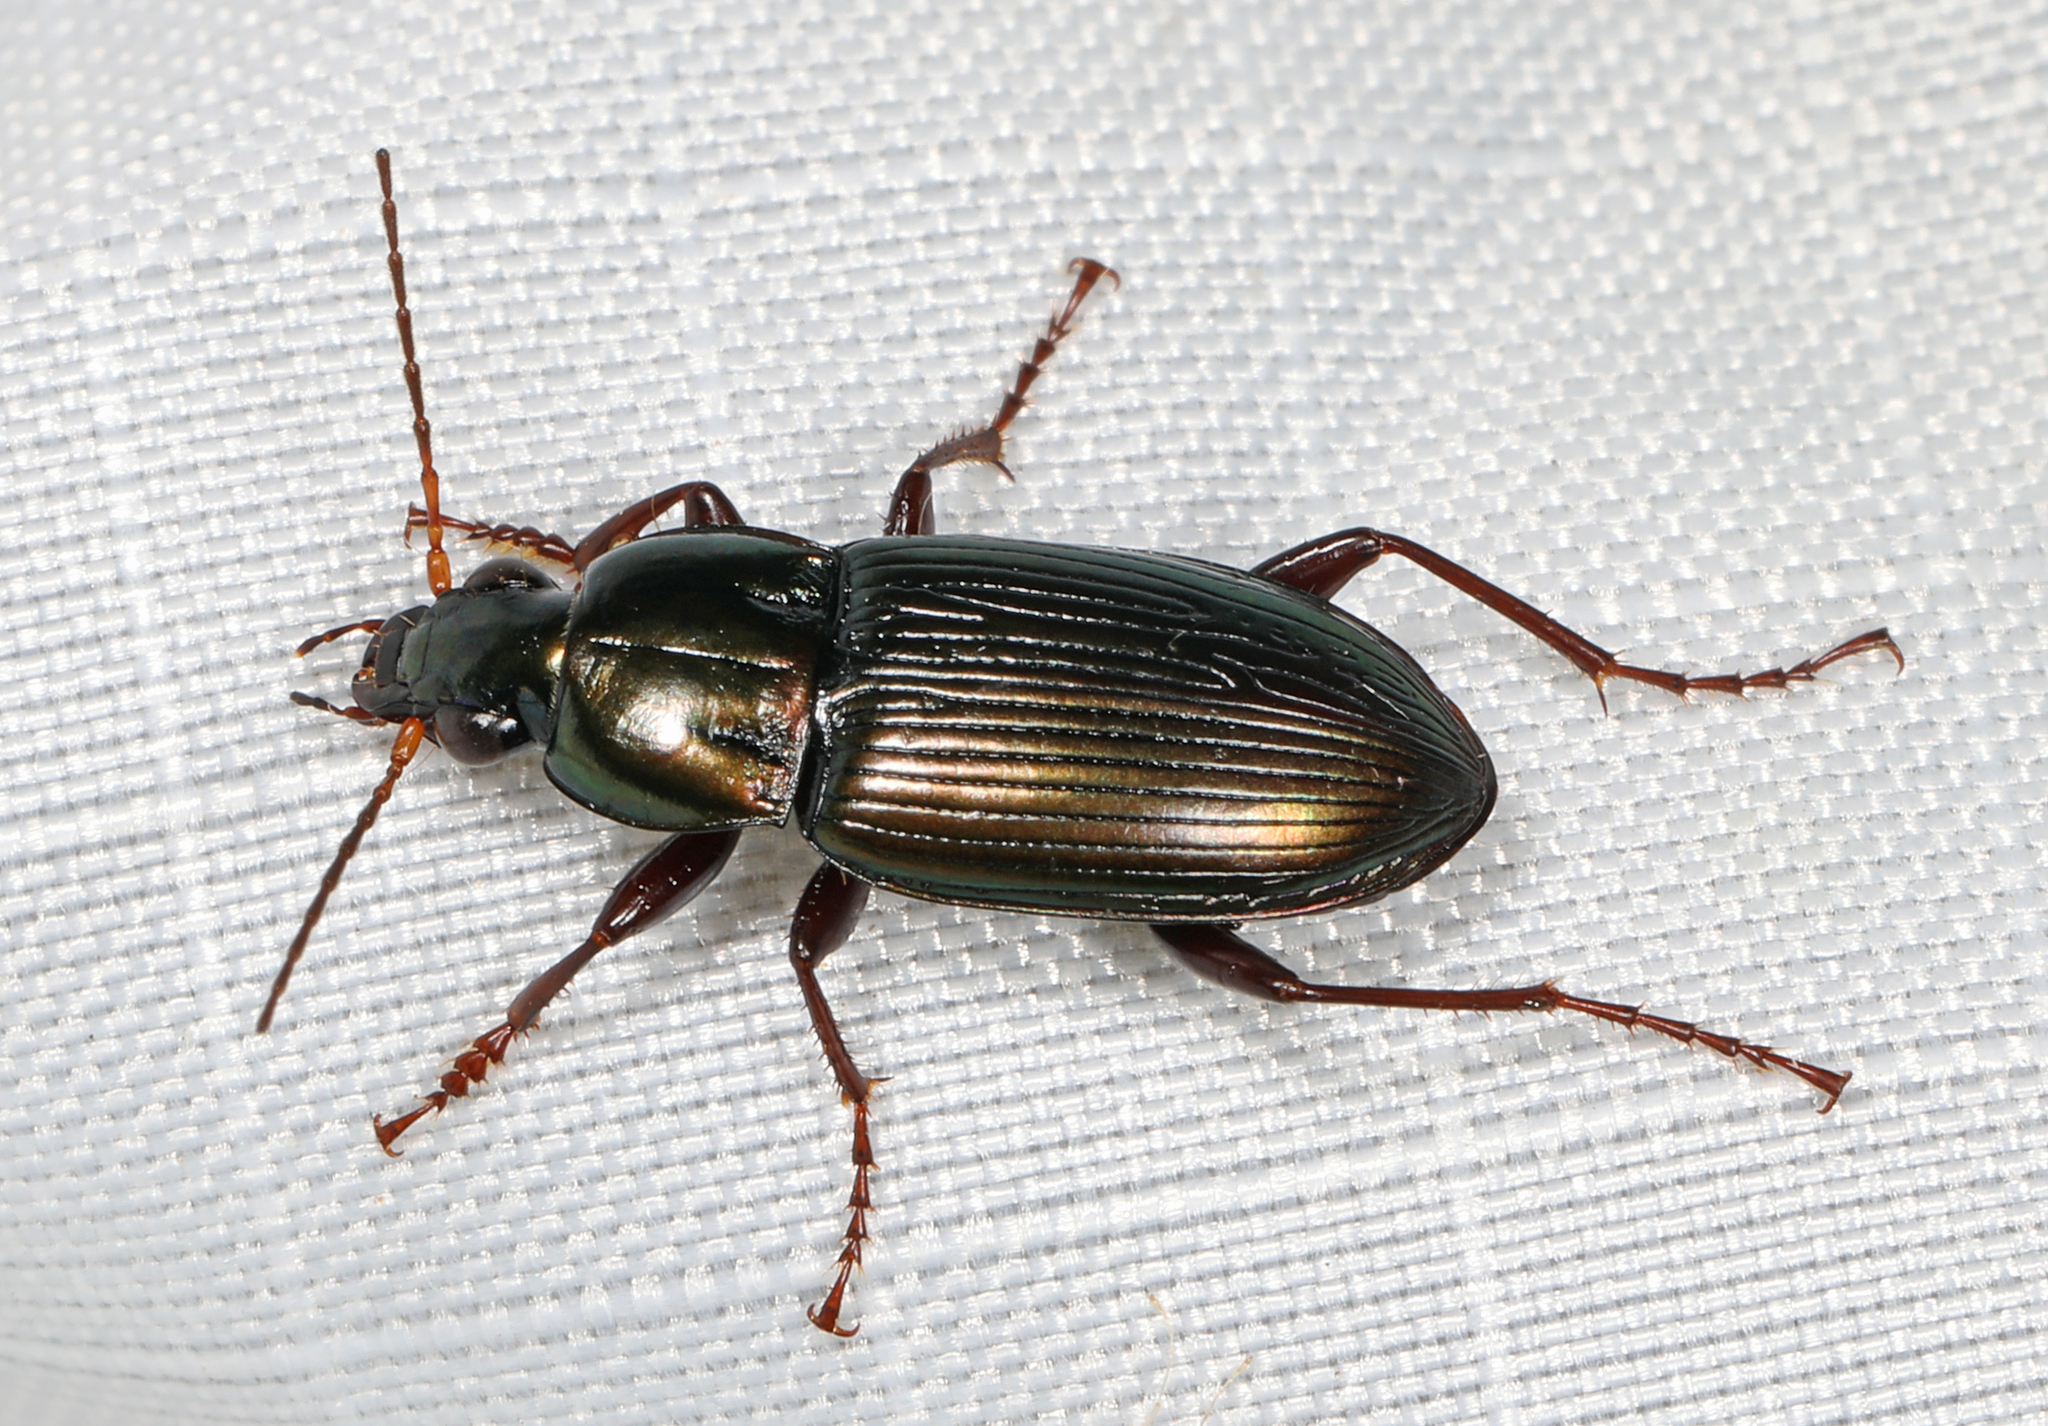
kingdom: Animalia
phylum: Arthropoda
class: Insecta
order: Coleoptera
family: Carabidae
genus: Poecilus
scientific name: Poecilus chalcites
